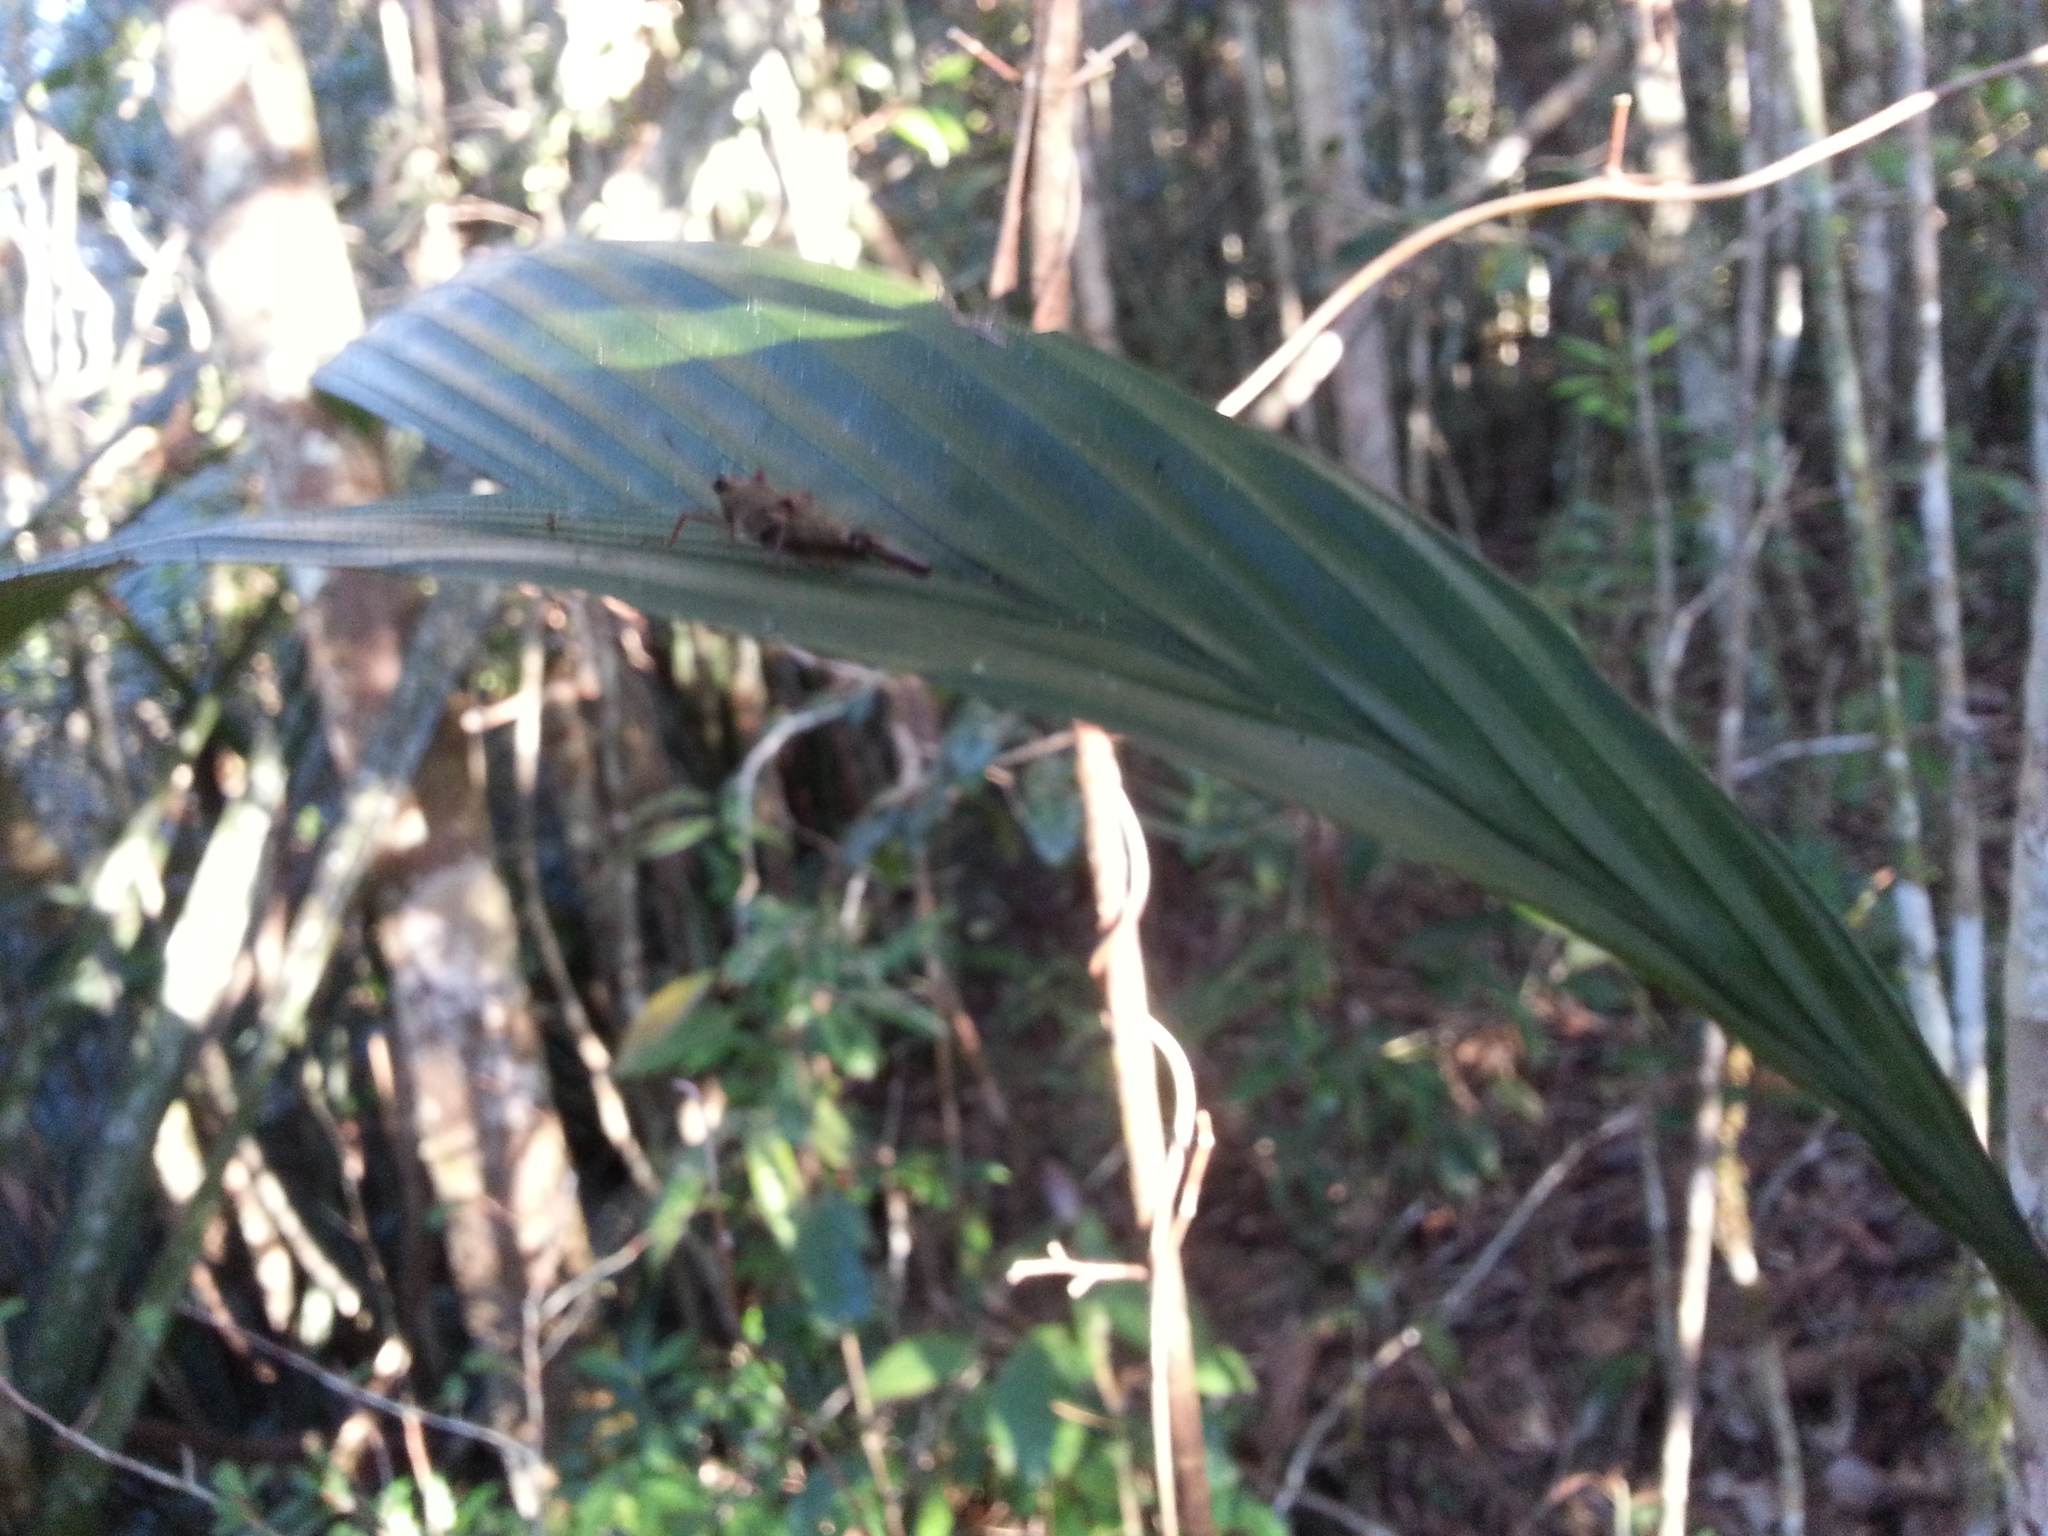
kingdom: Animalia
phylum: Arthropoda
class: Insecta
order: Orthoptera
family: Tetrigidae
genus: Andriana
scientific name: Andriana pyramidata
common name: Common royal pygmy grasshopper
